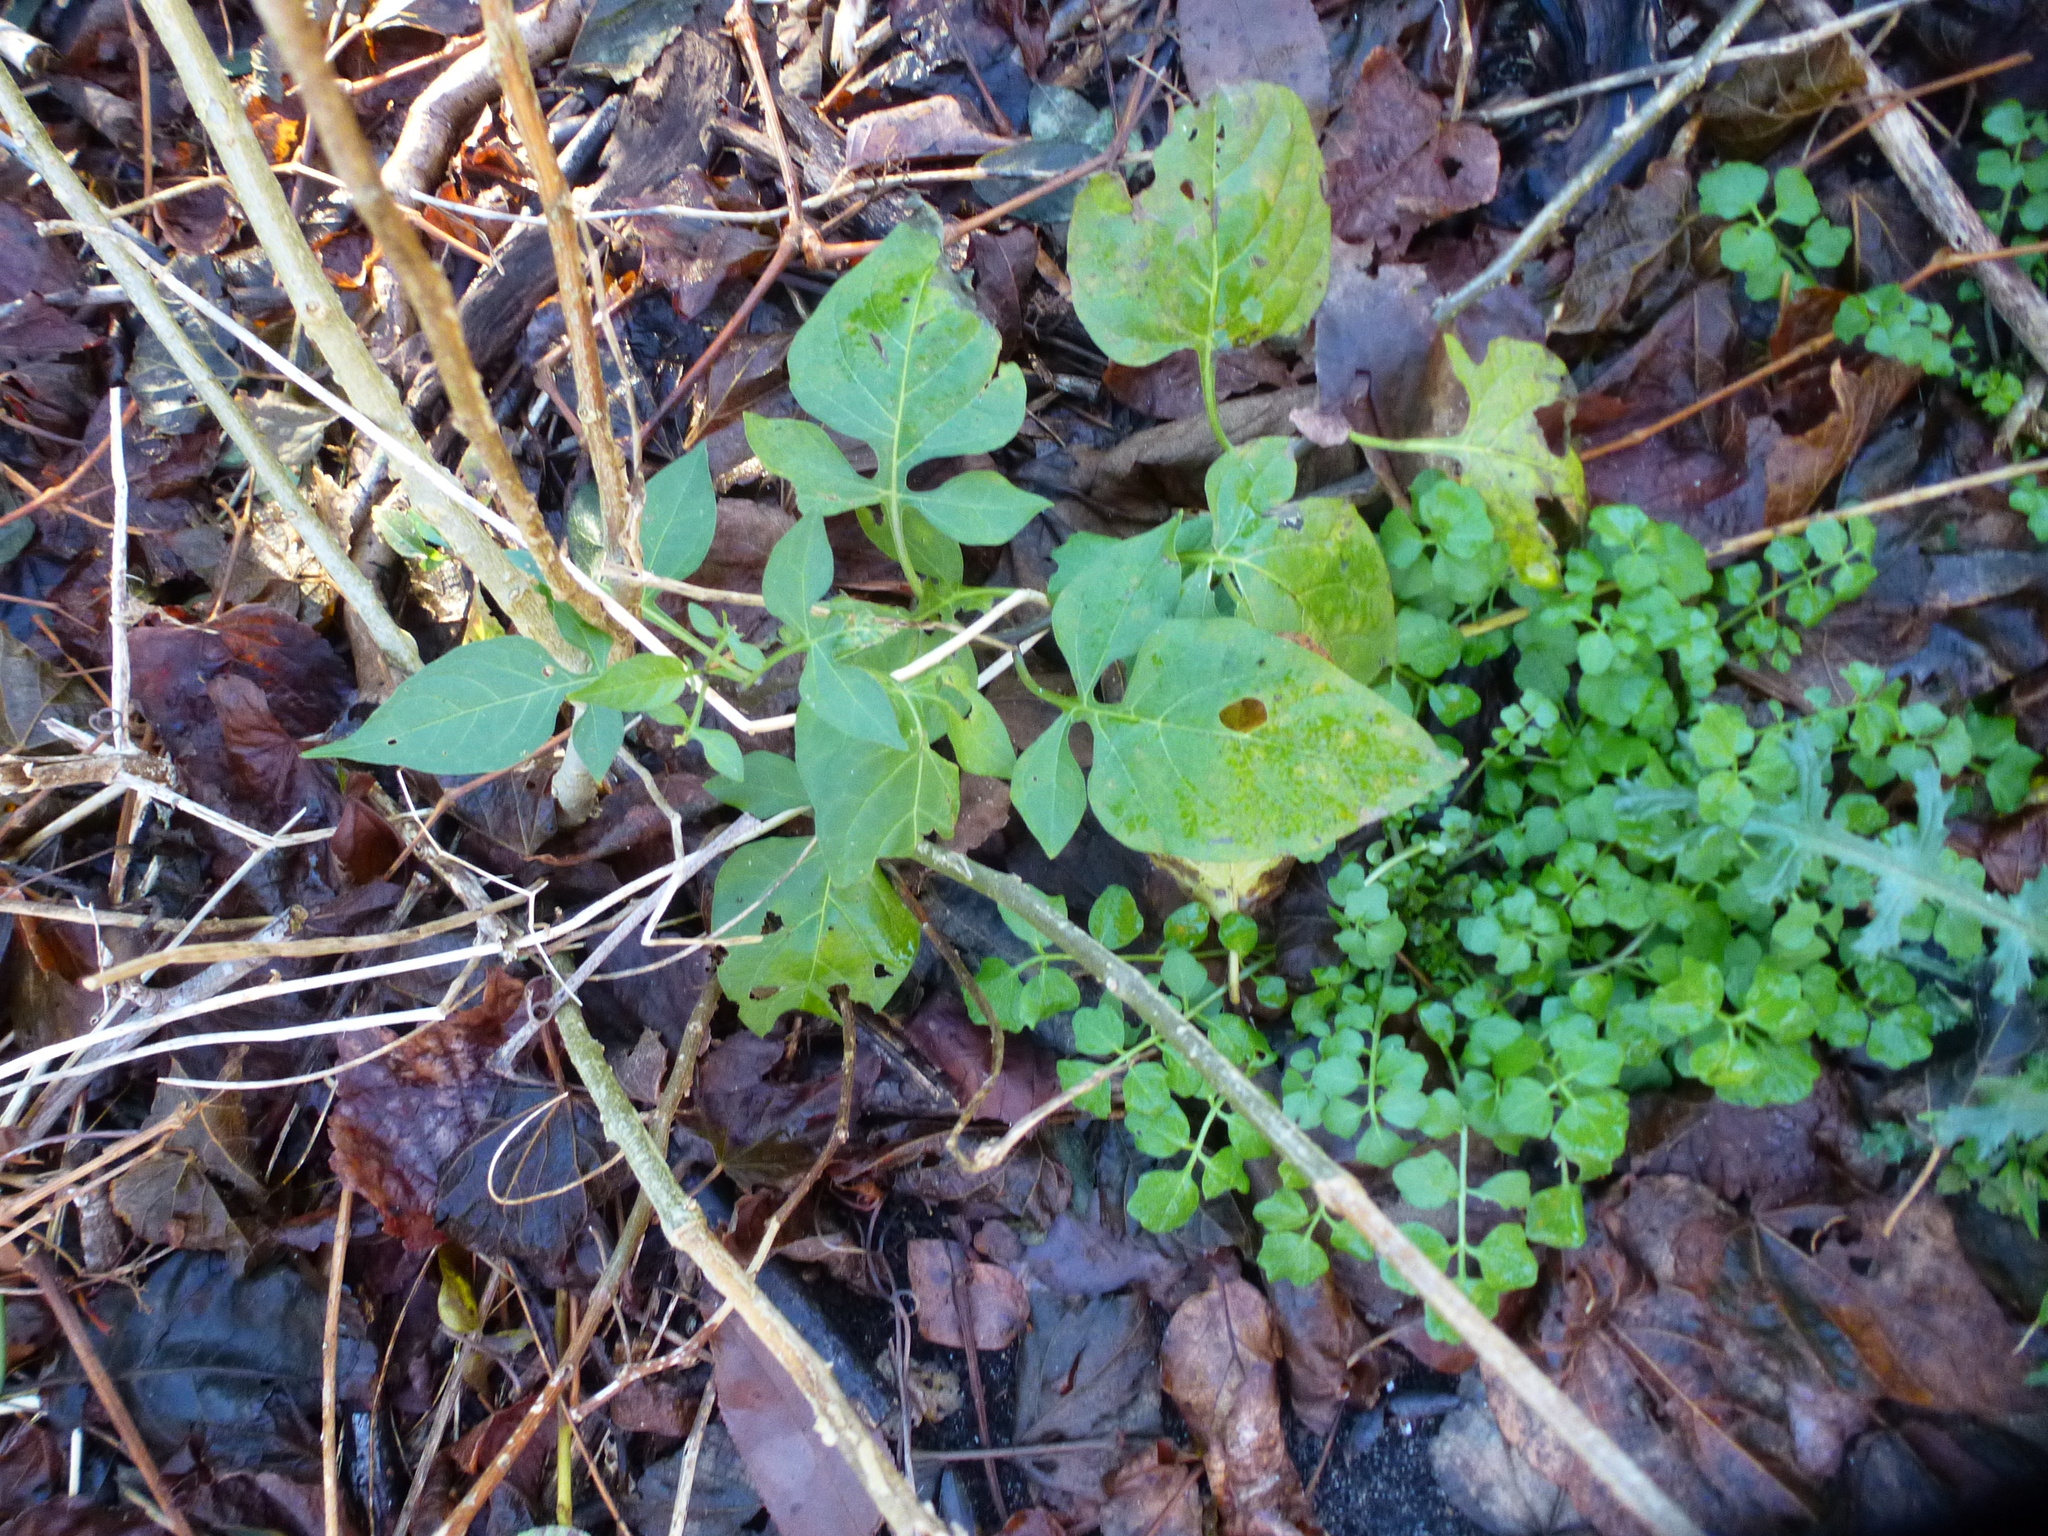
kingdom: Plantae
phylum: Tracheophyta
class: Magnoliopsida
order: Solanales
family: Solanaceae
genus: Solanum
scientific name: Solanum dulcamara
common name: Climbing nightshade
